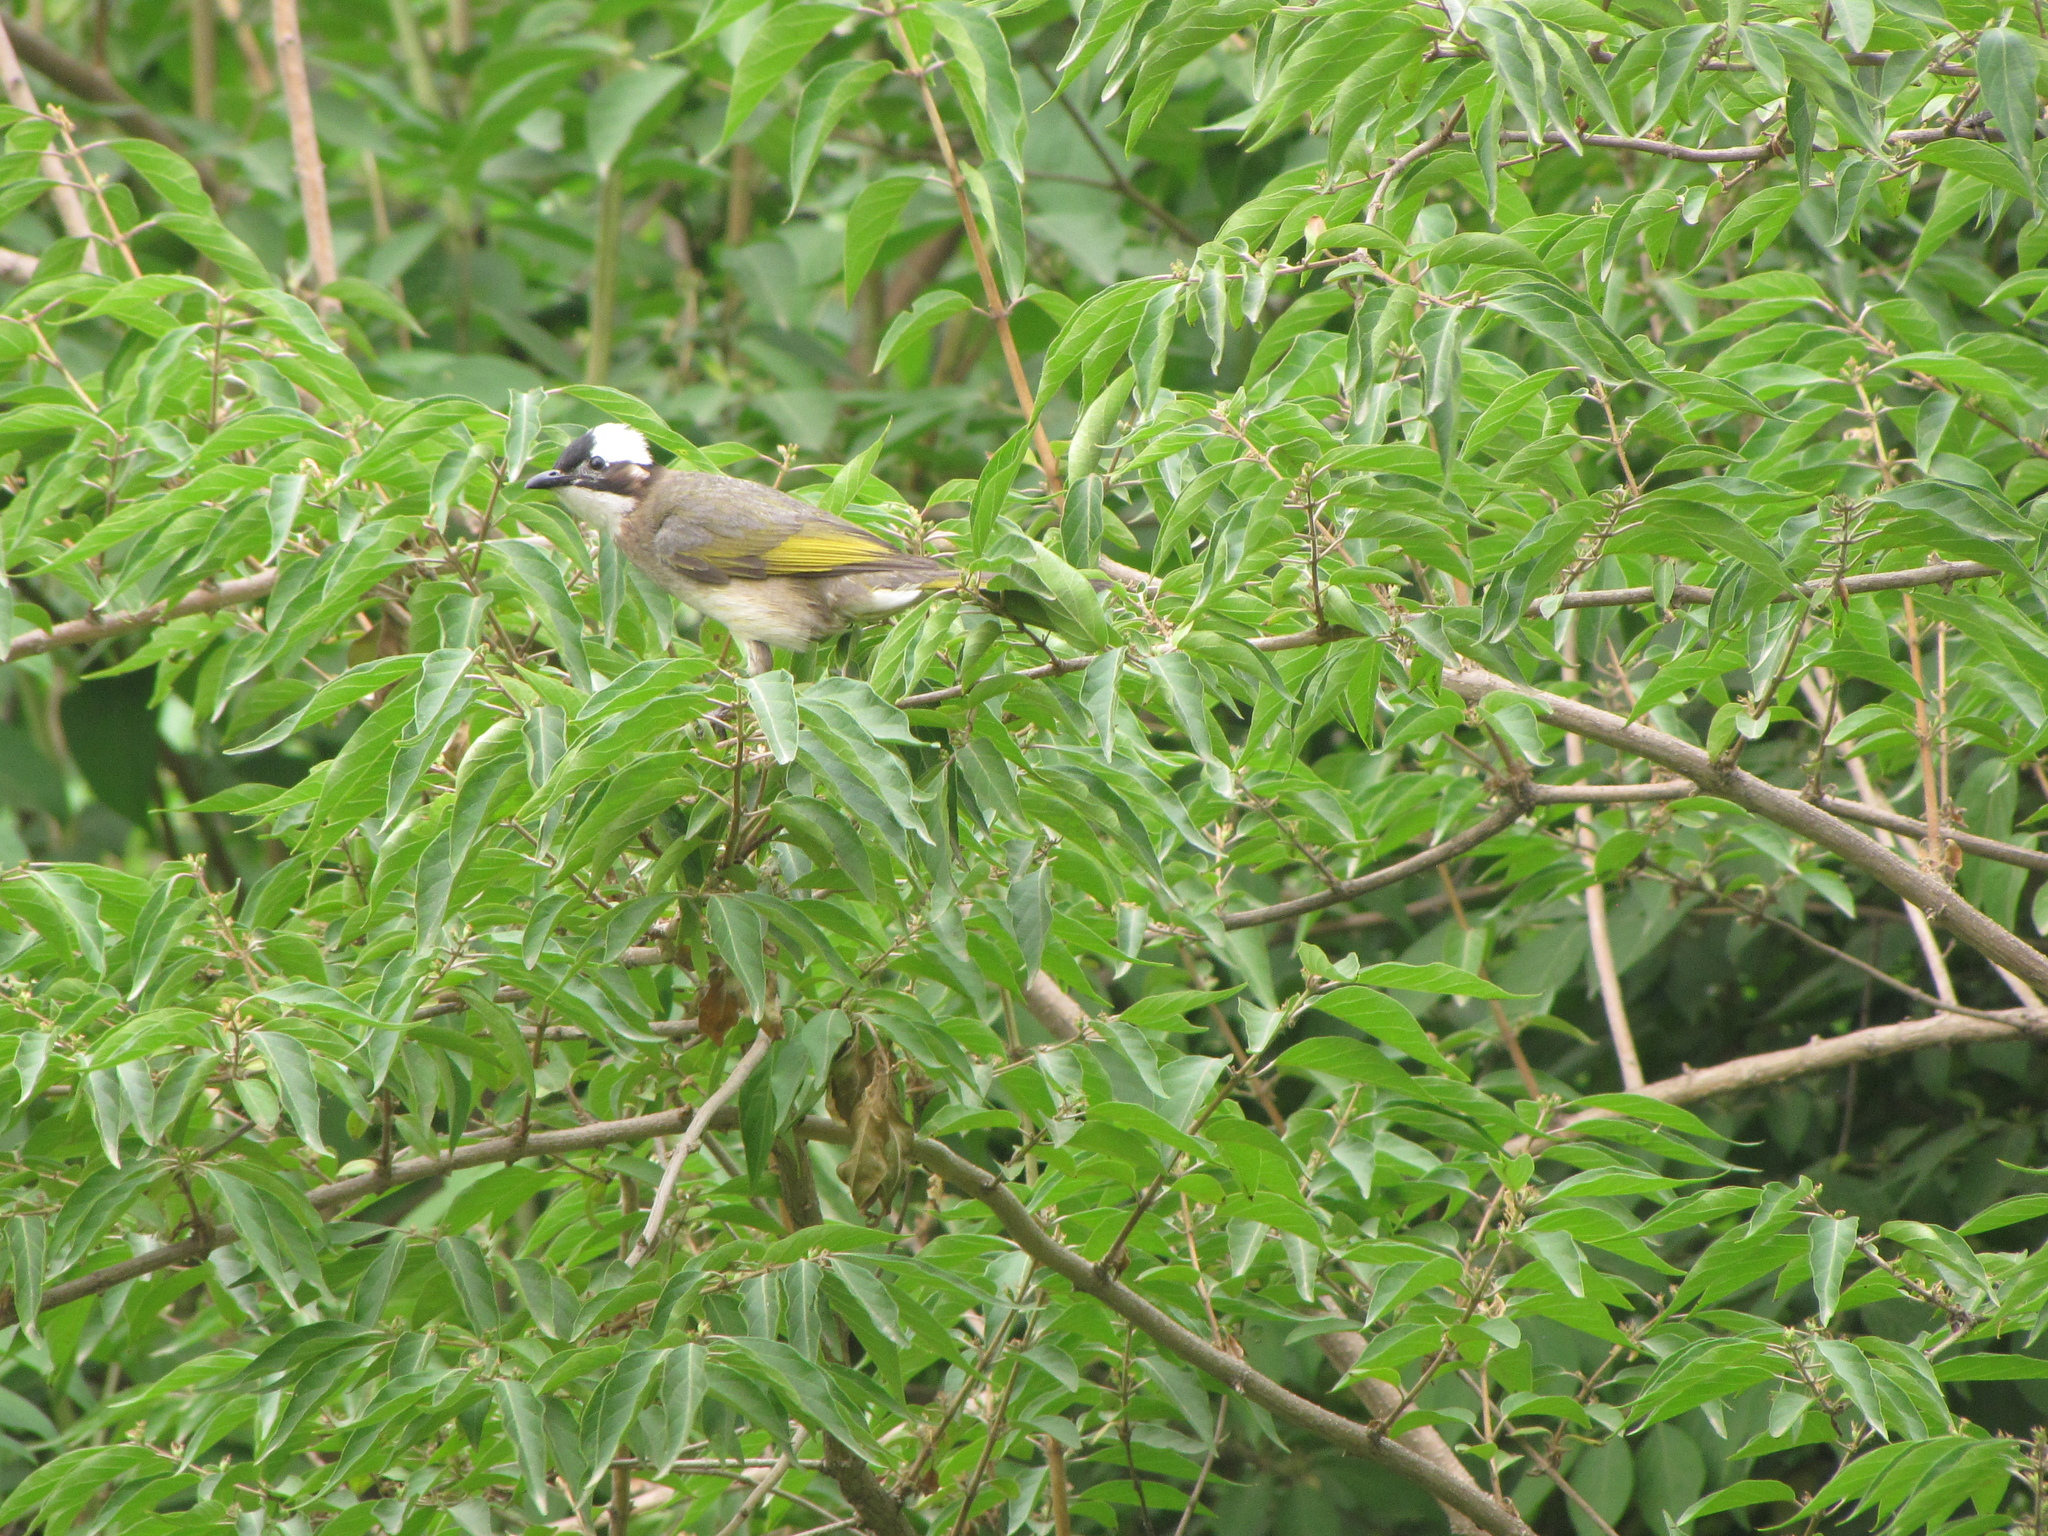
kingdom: Animalia
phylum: Chordata
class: Aves
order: Passeriformes
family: Pycnonotidae
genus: Pycnonotus
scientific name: Pycnonotus sinensis
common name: Light-vented bulbul
